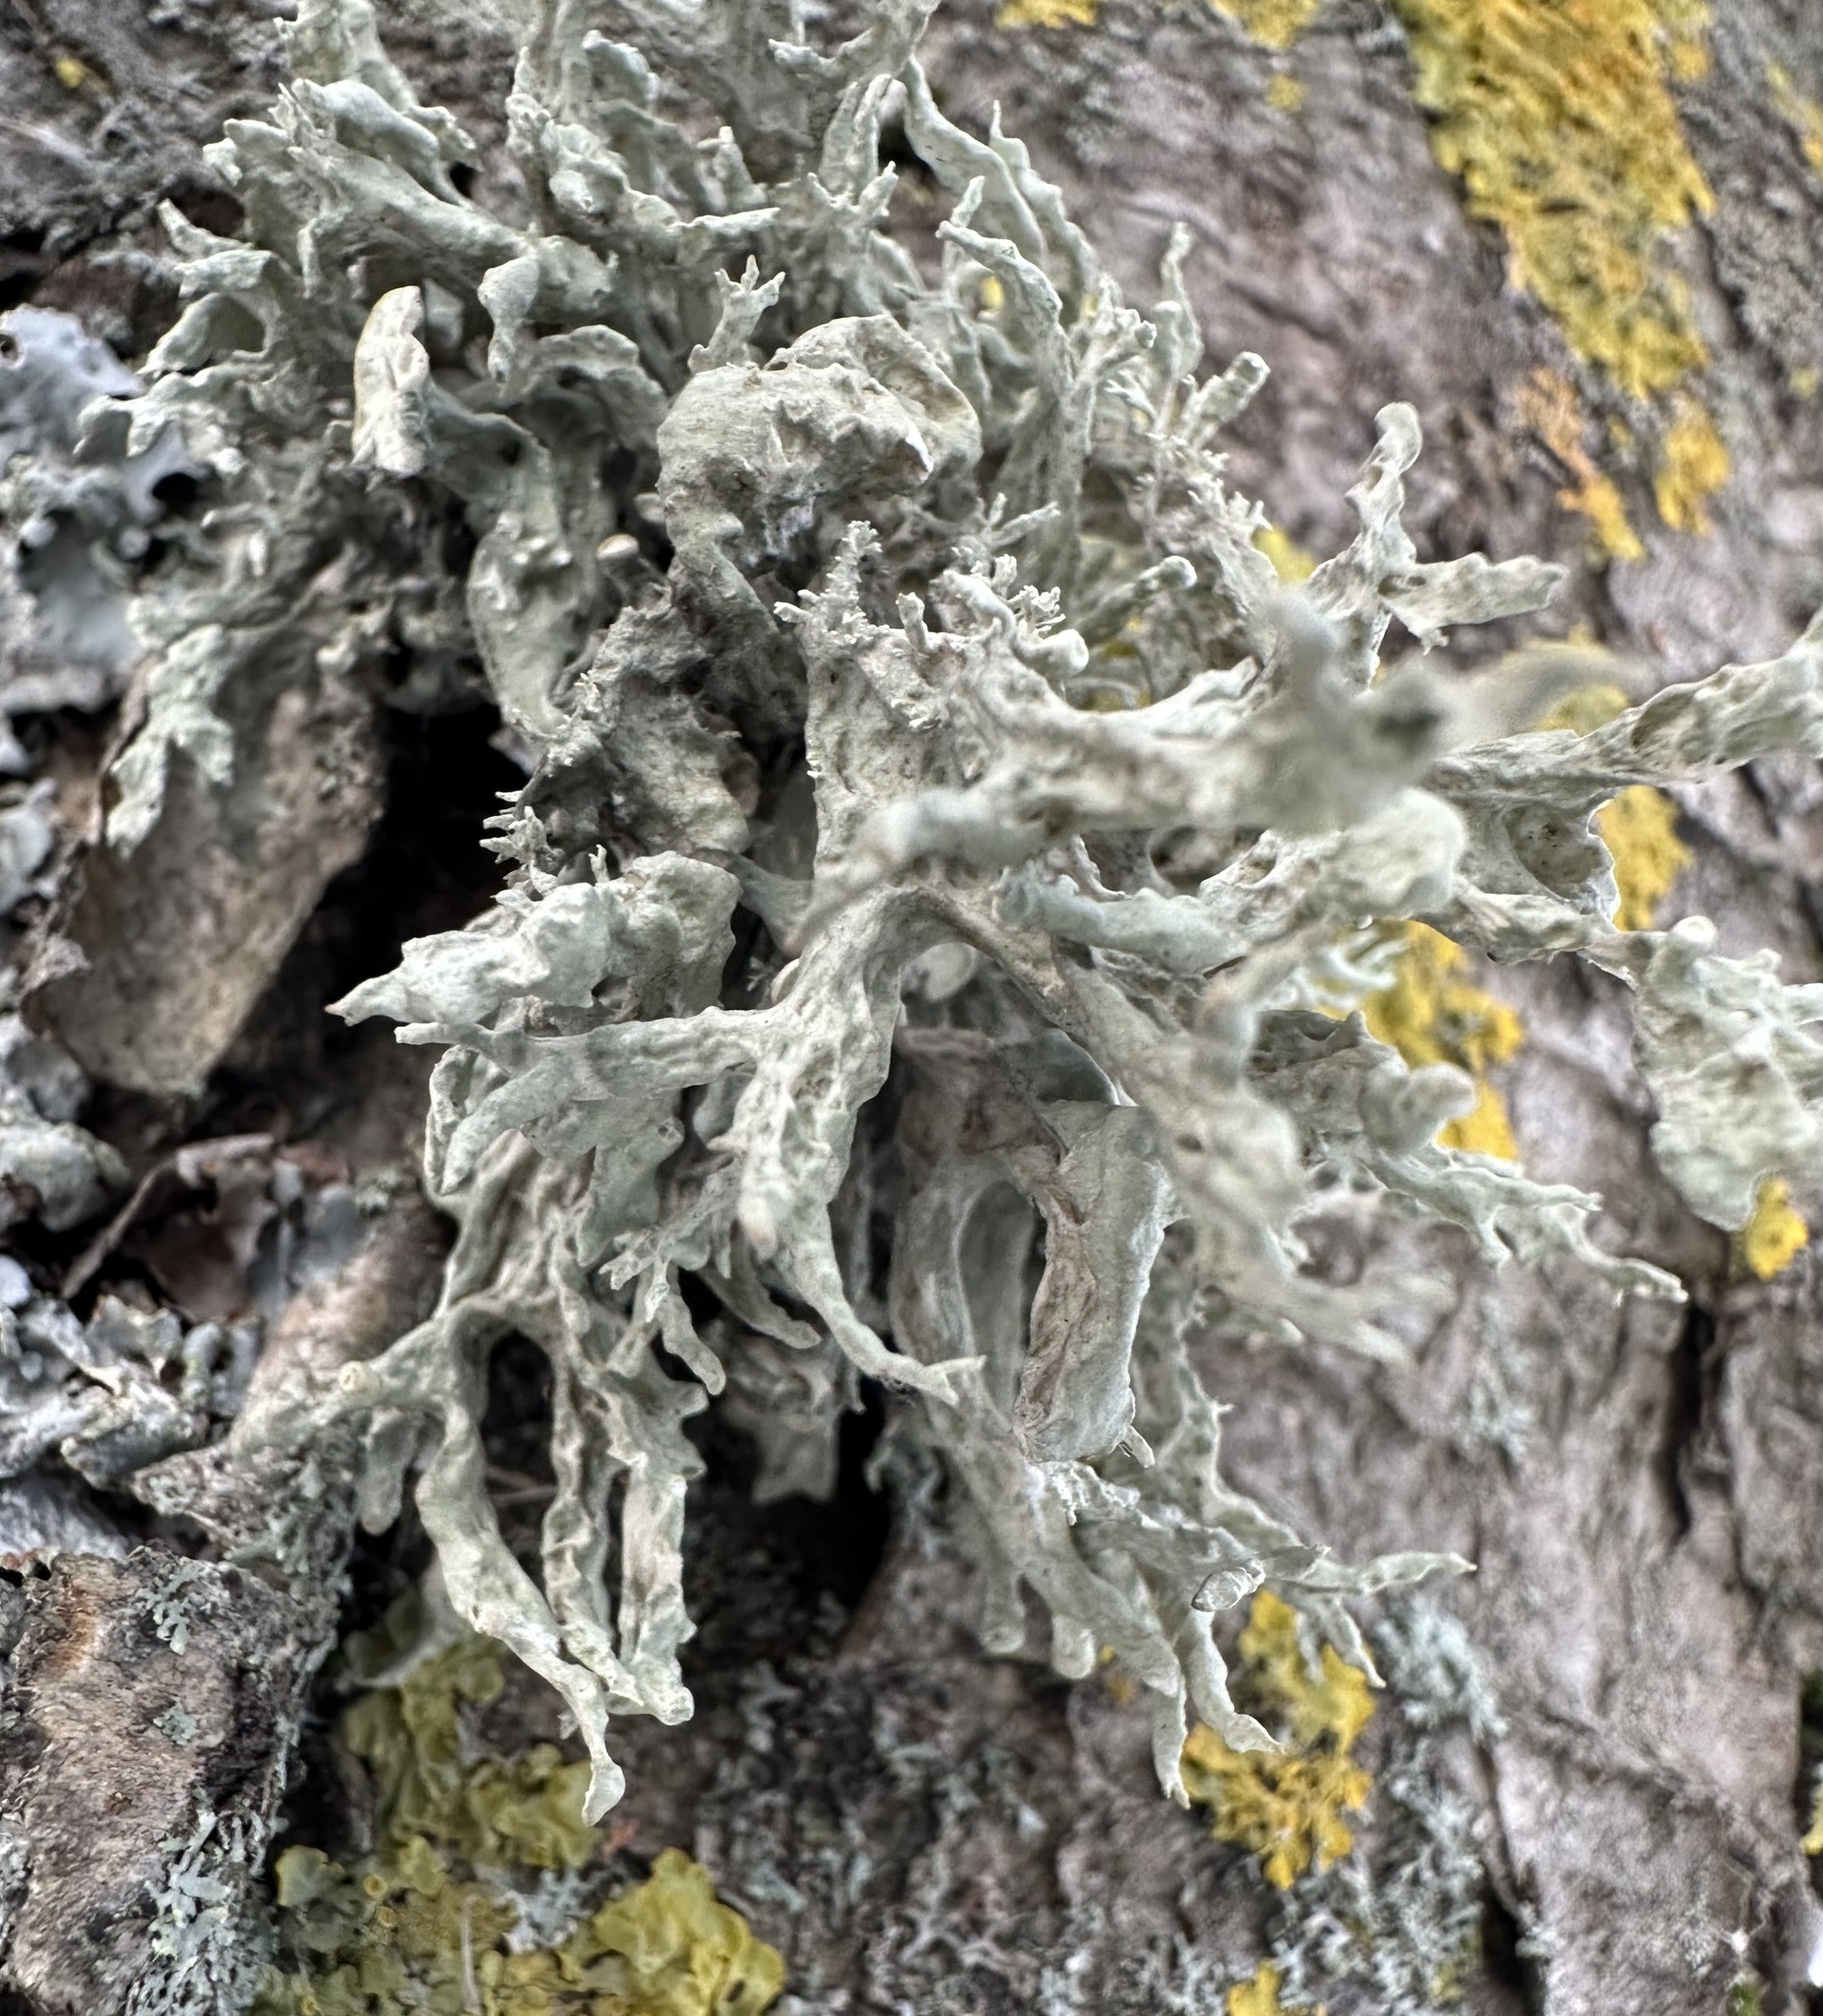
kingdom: Fungi
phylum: Ascomycota
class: Lecanoromycetes
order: Lecanorales
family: Ramalinaceae
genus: Ramalina
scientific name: Ramalina fastigiata
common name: Dotted ribbon lichen
